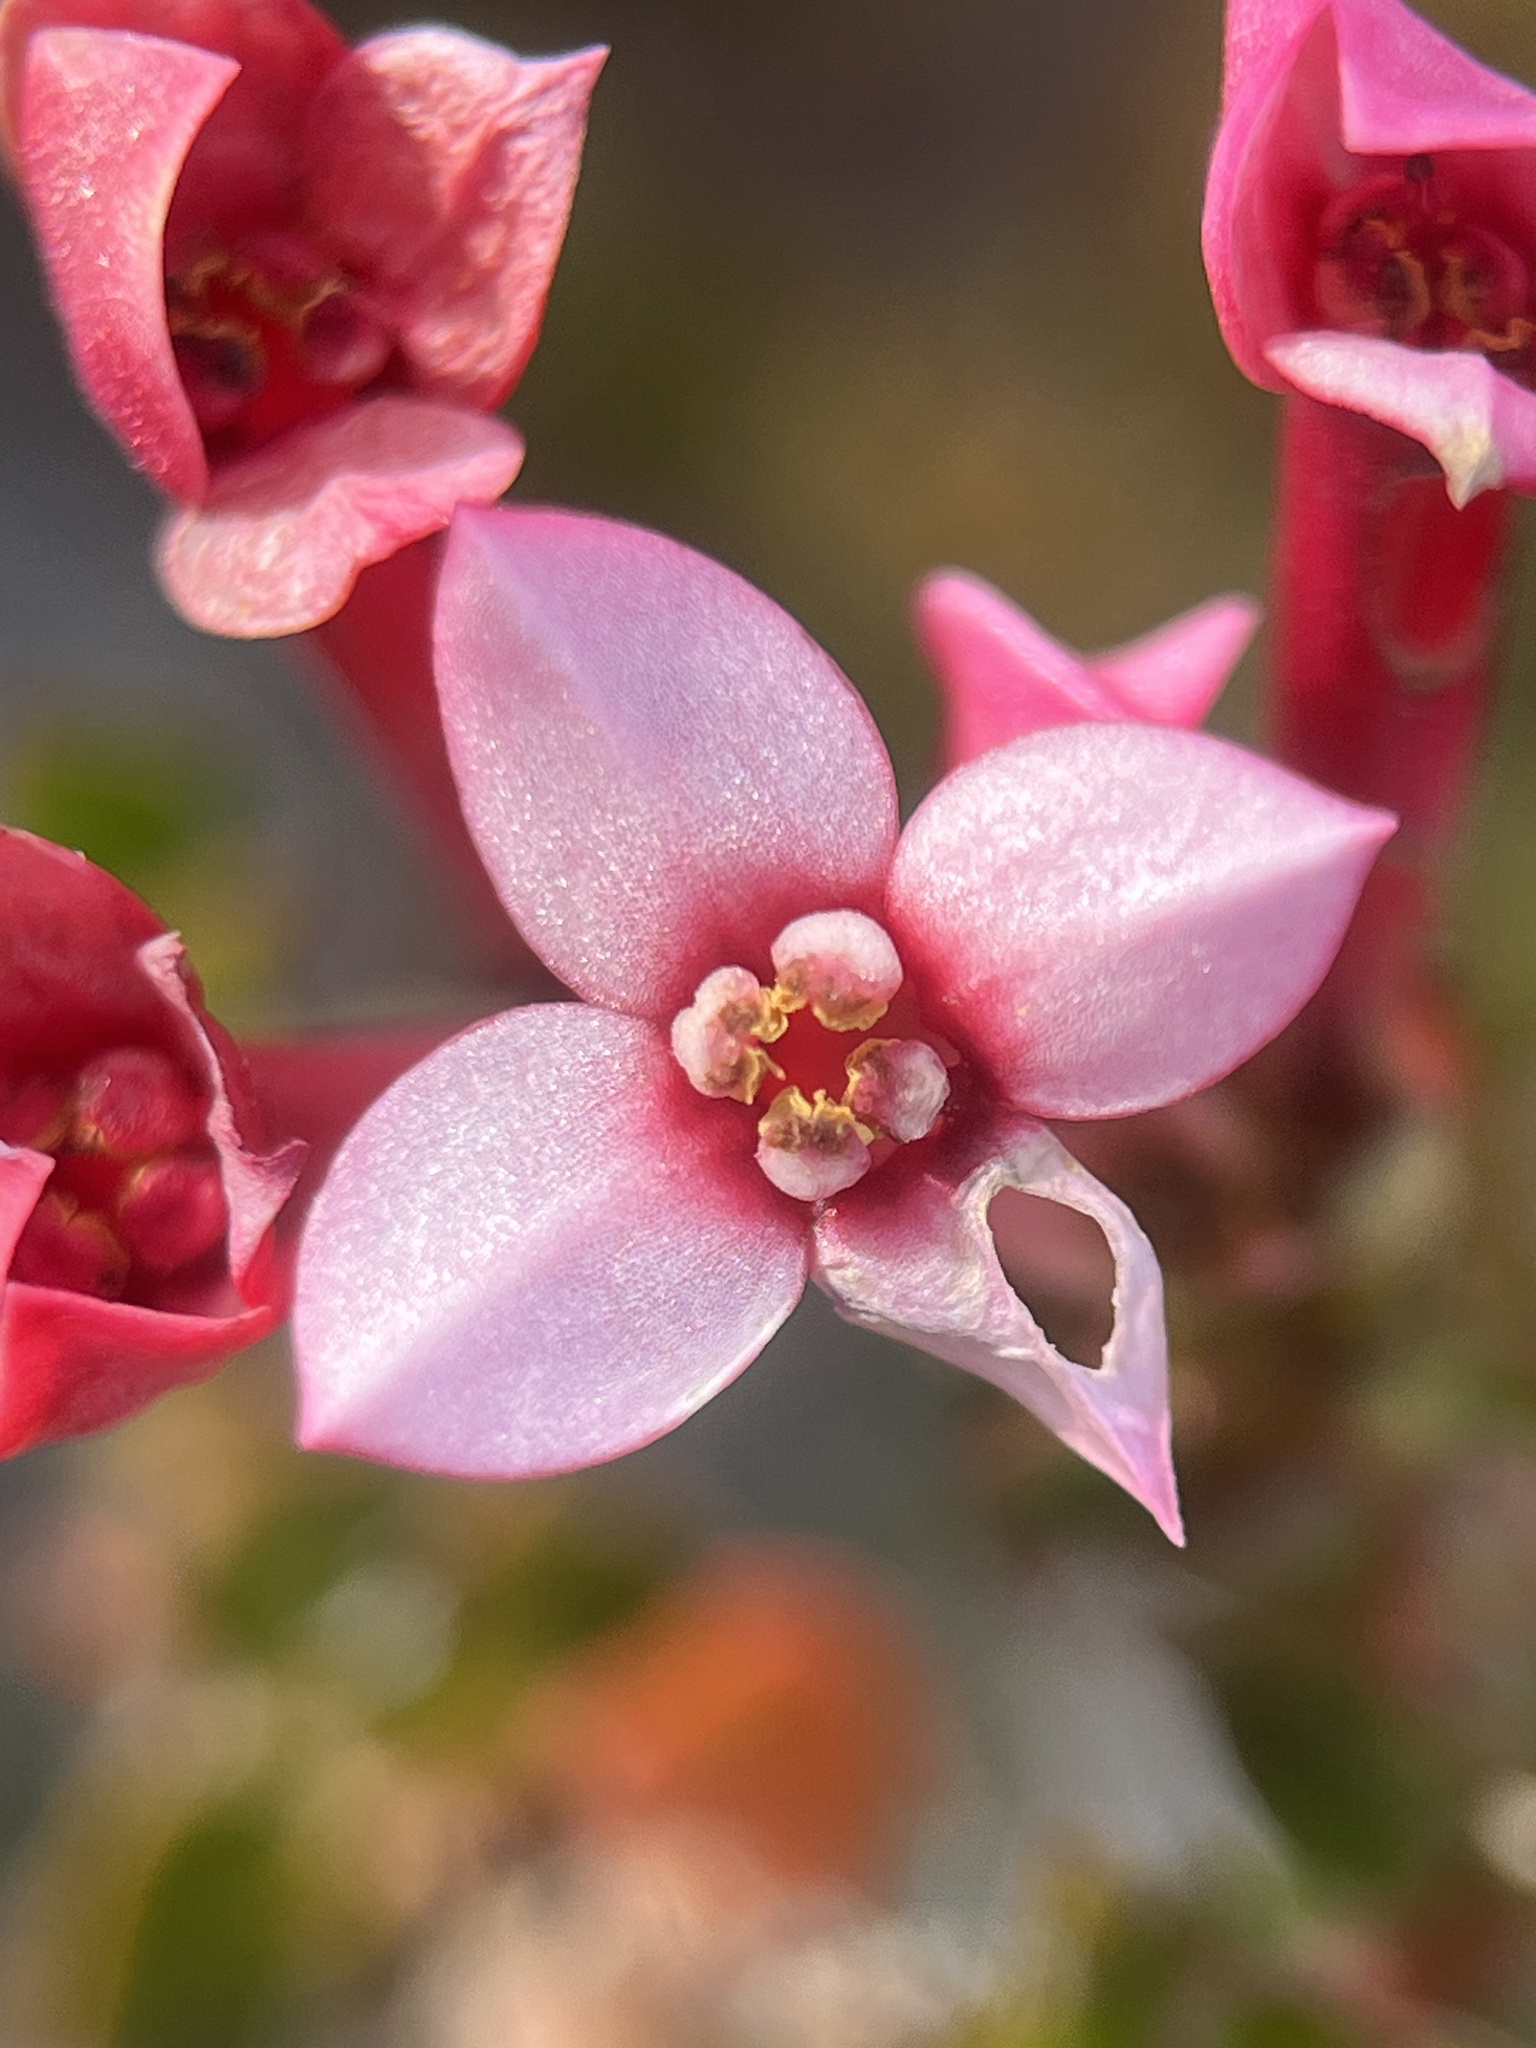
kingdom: Plantae
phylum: Tracheophyta
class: Magnoliopsida
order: Myrtales
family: Penaeaceae
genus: Brachysiphon
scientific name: Brachysiphon acutus
